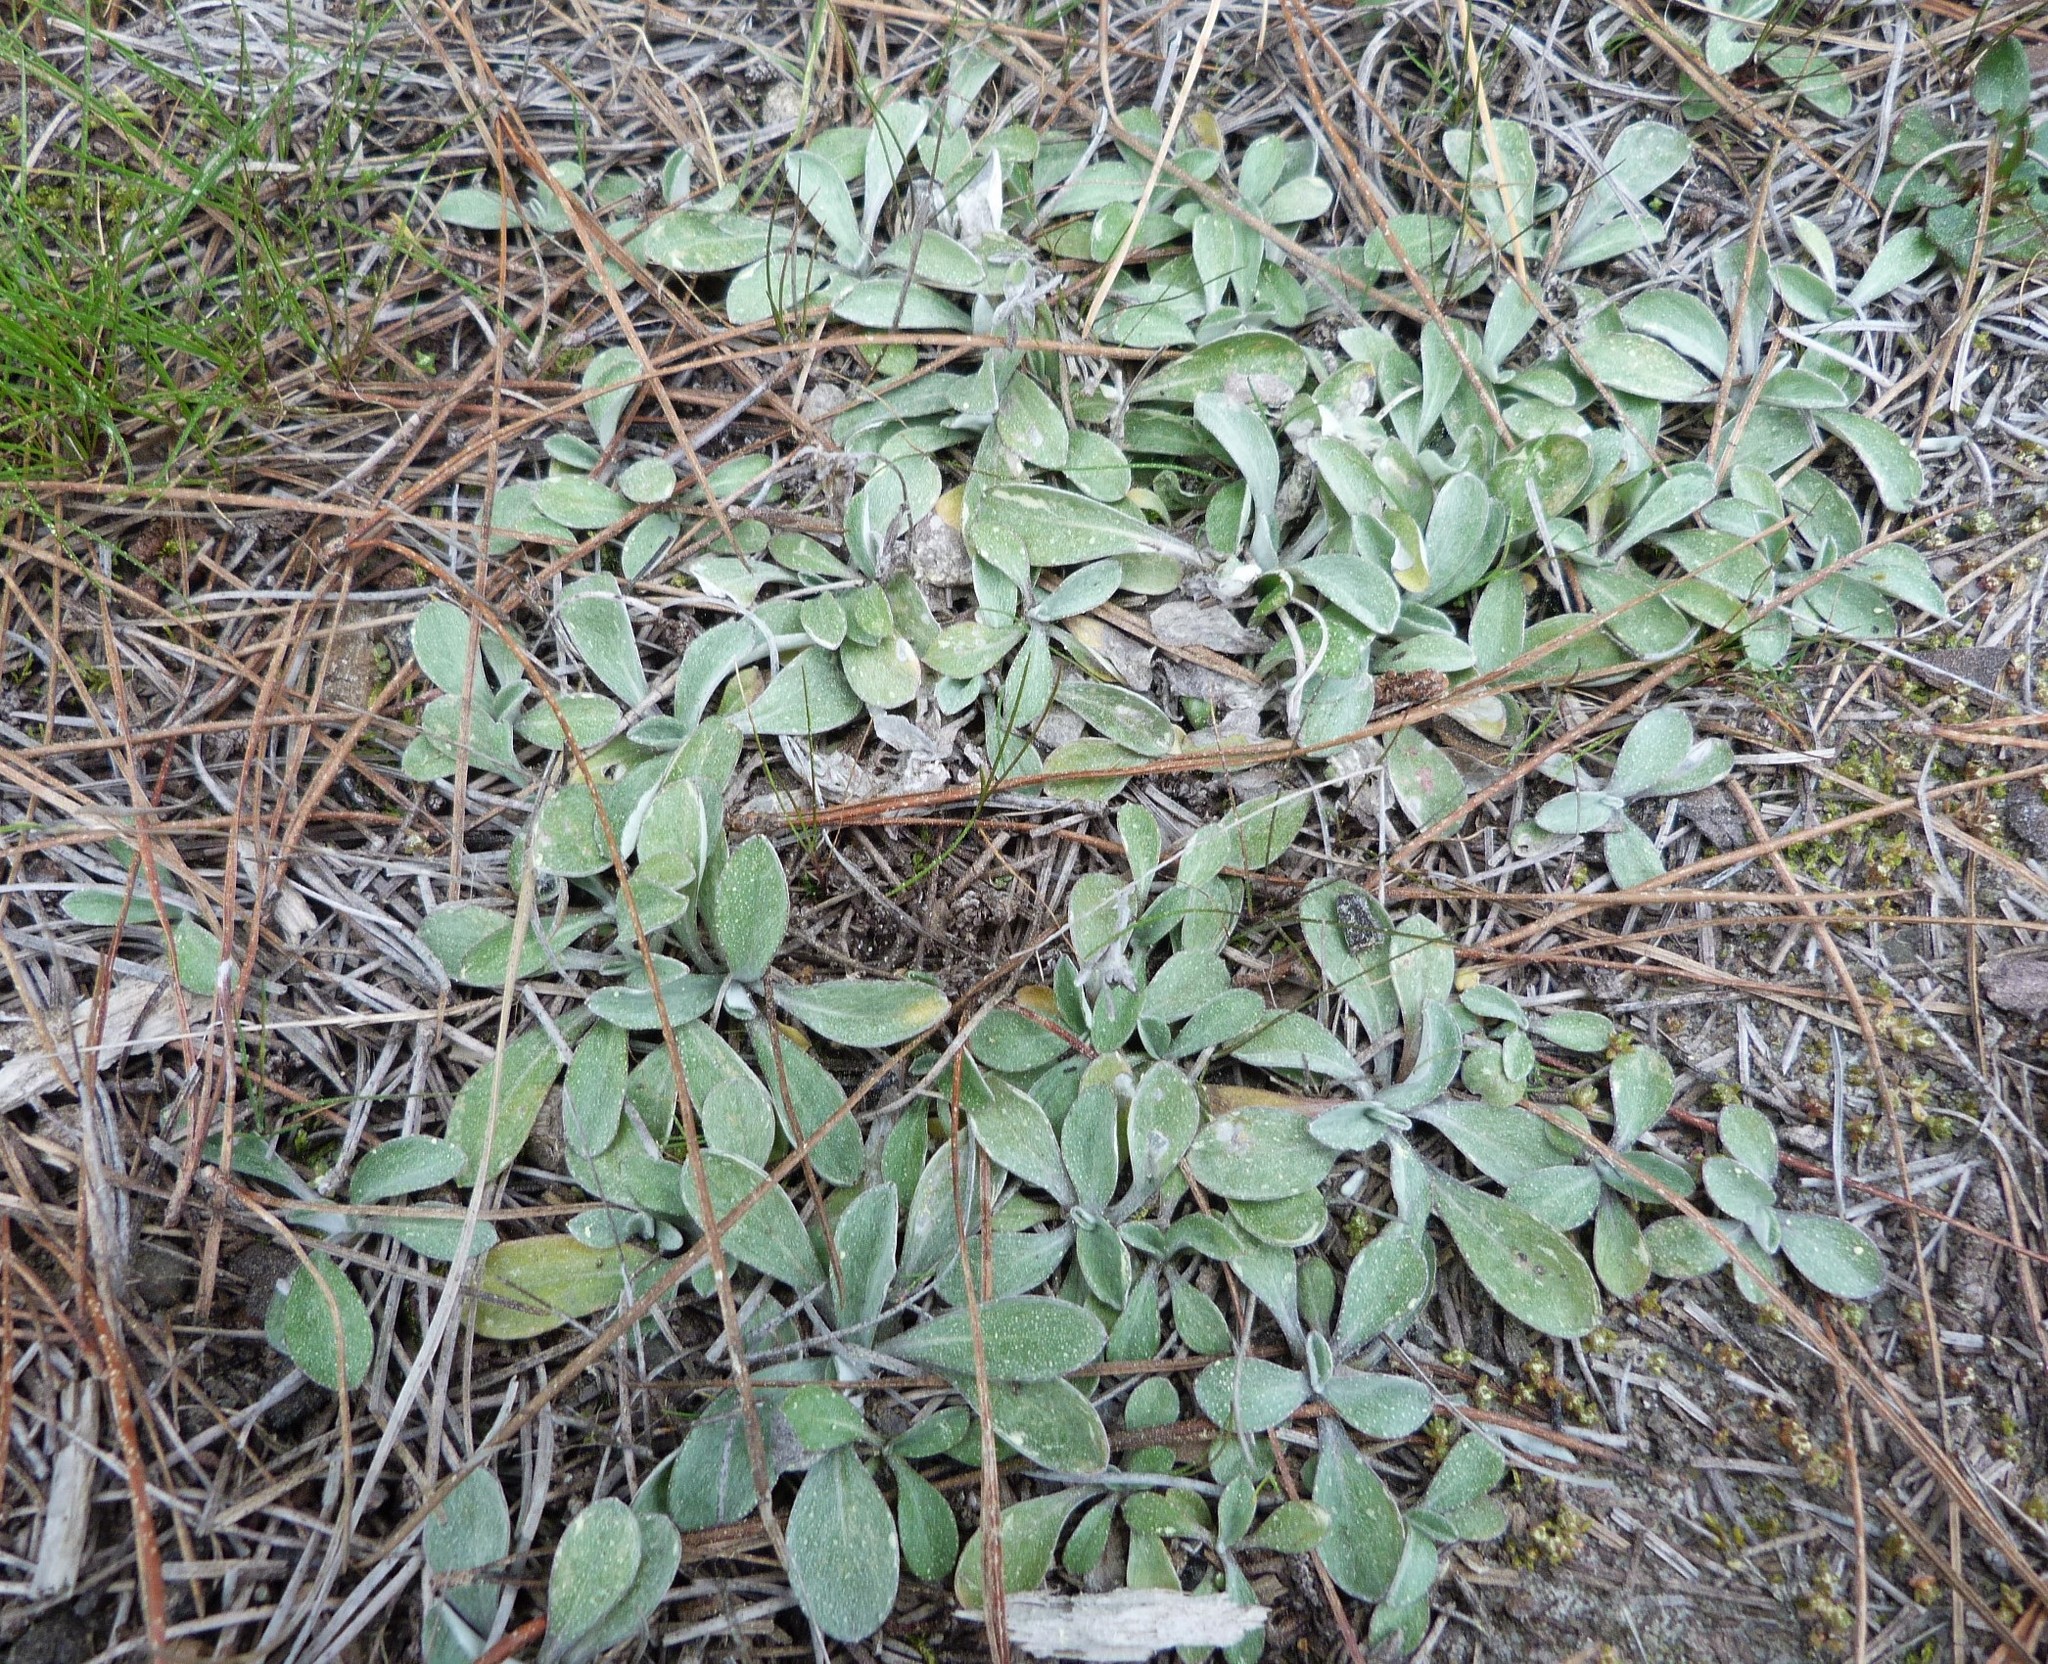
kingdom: Plantae
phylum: Tracheophyta
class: Magnoliopsida
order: Asterales
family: Asteraceae
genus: Euchiton
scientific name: Euchiton audax
